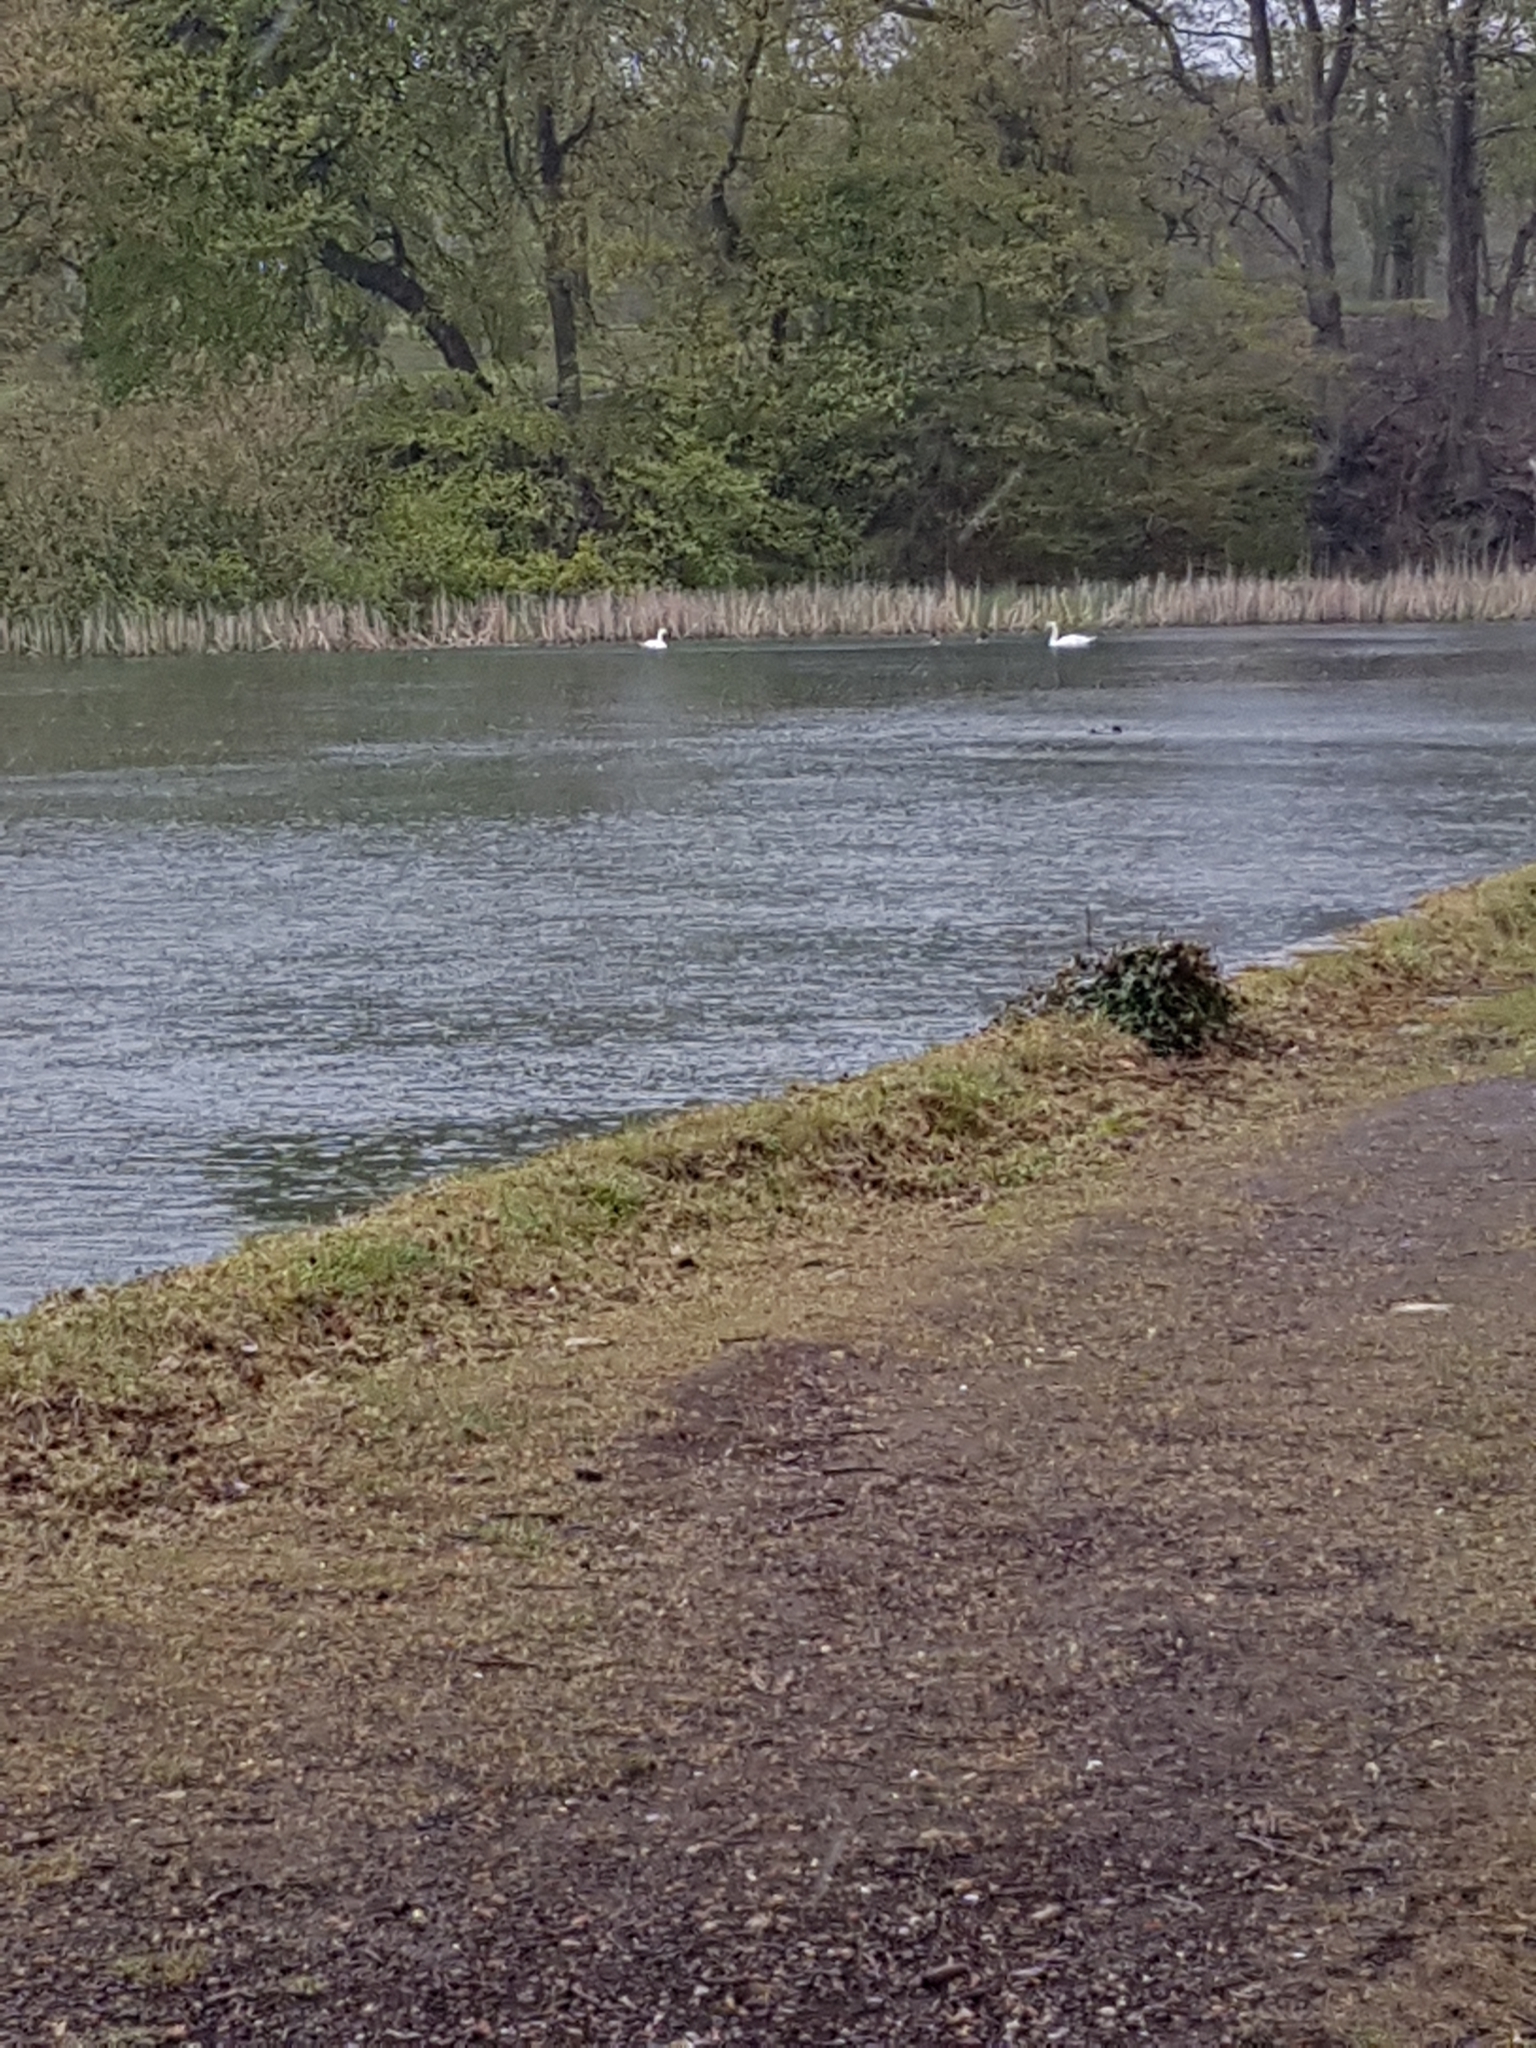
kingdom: Animalia
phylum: Chordata
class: Aves
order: Anseriformes
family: Anatidae
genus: Cygnus
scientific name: Cygnus olor
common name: Mute swan
